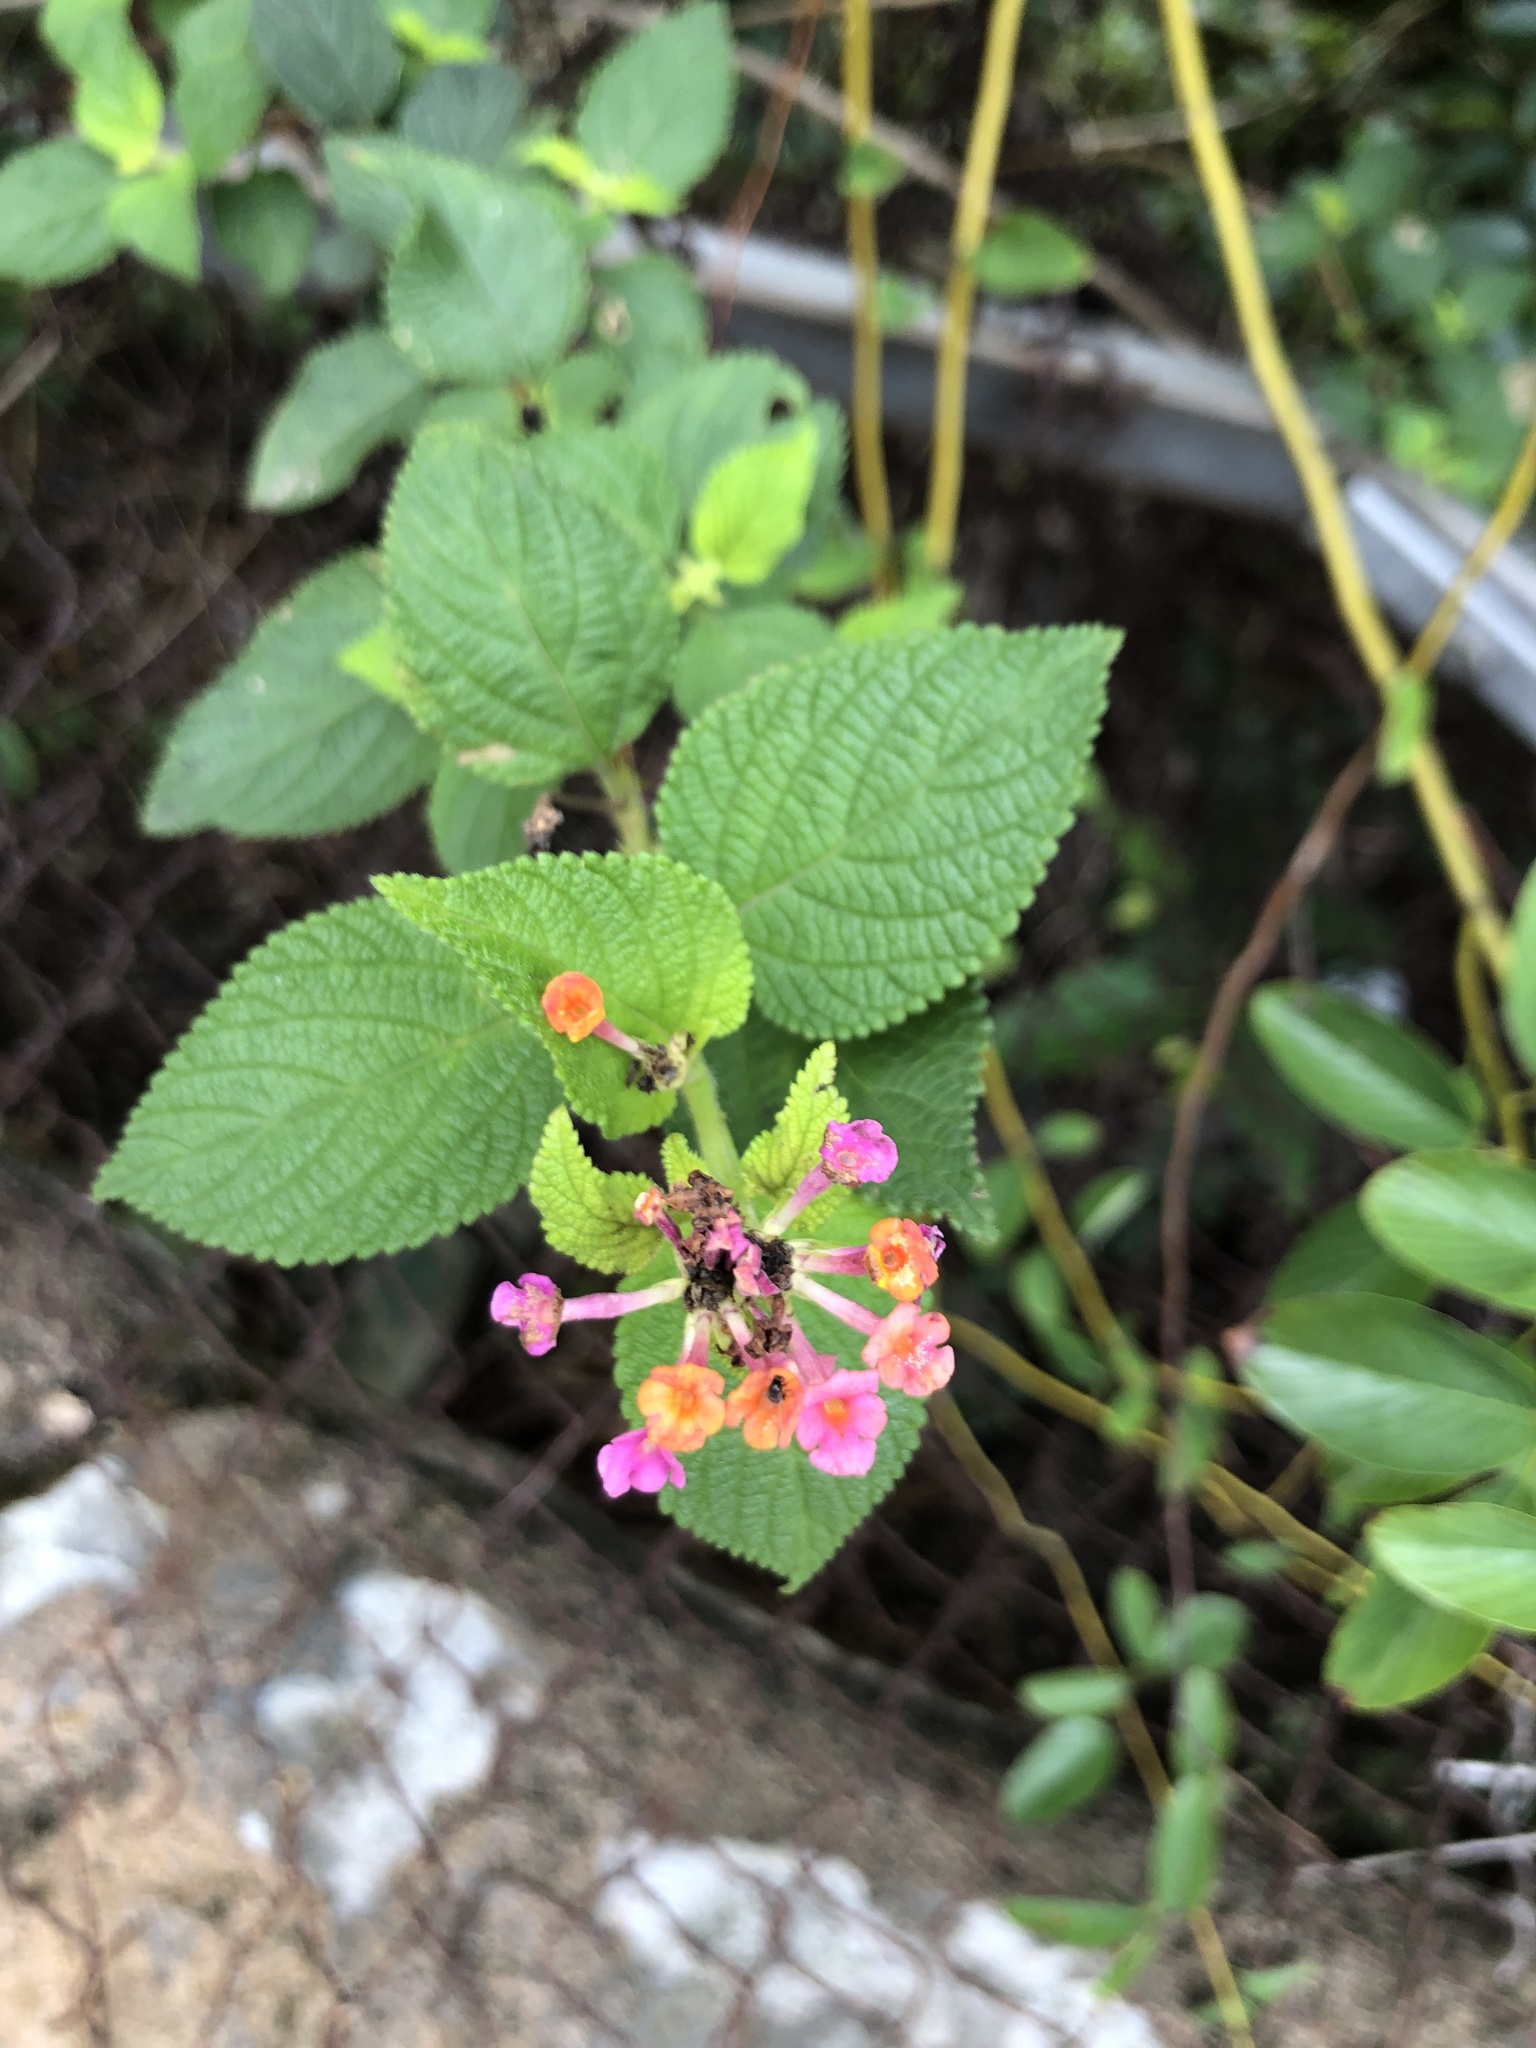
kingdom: Plantae
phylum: Tracheophyta
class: Magnoliopsida
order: Lamiales
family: Verbenaceae
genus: Lantana
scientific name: Lantana camara
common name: Lantana
